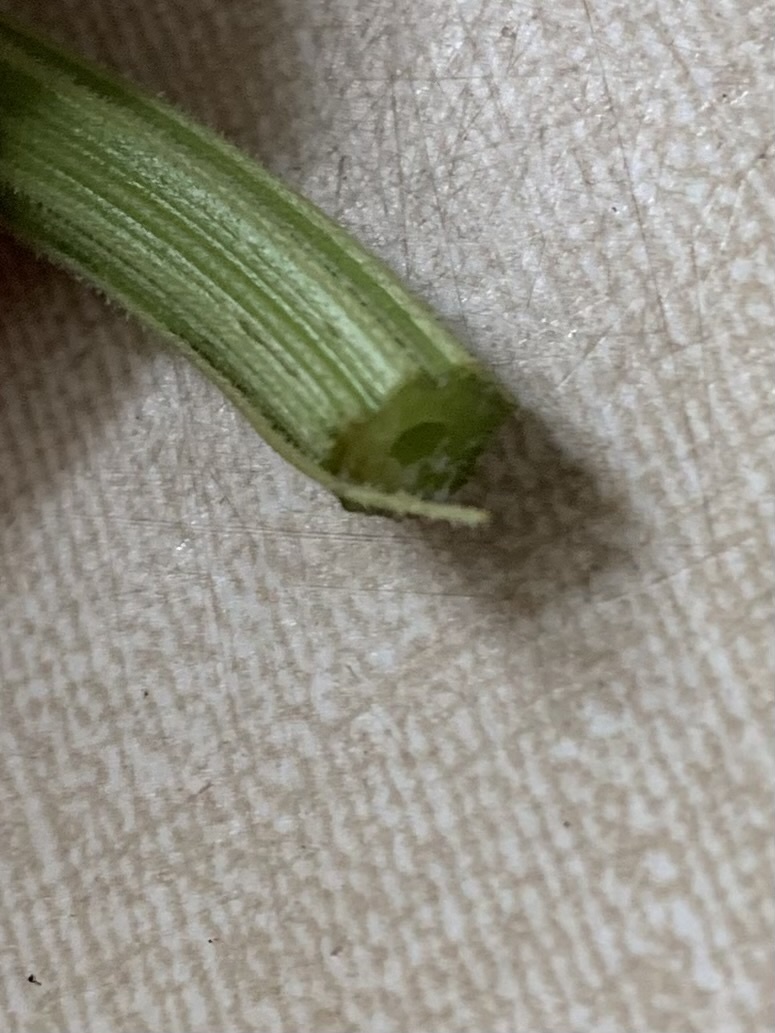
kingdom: Plantae
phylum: Tracheophyta
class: Magnoliopsida
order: Apiales
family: Apiaceae
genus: Anthriscus
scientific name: Anthriscus sylvestris
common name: Cow parsley
